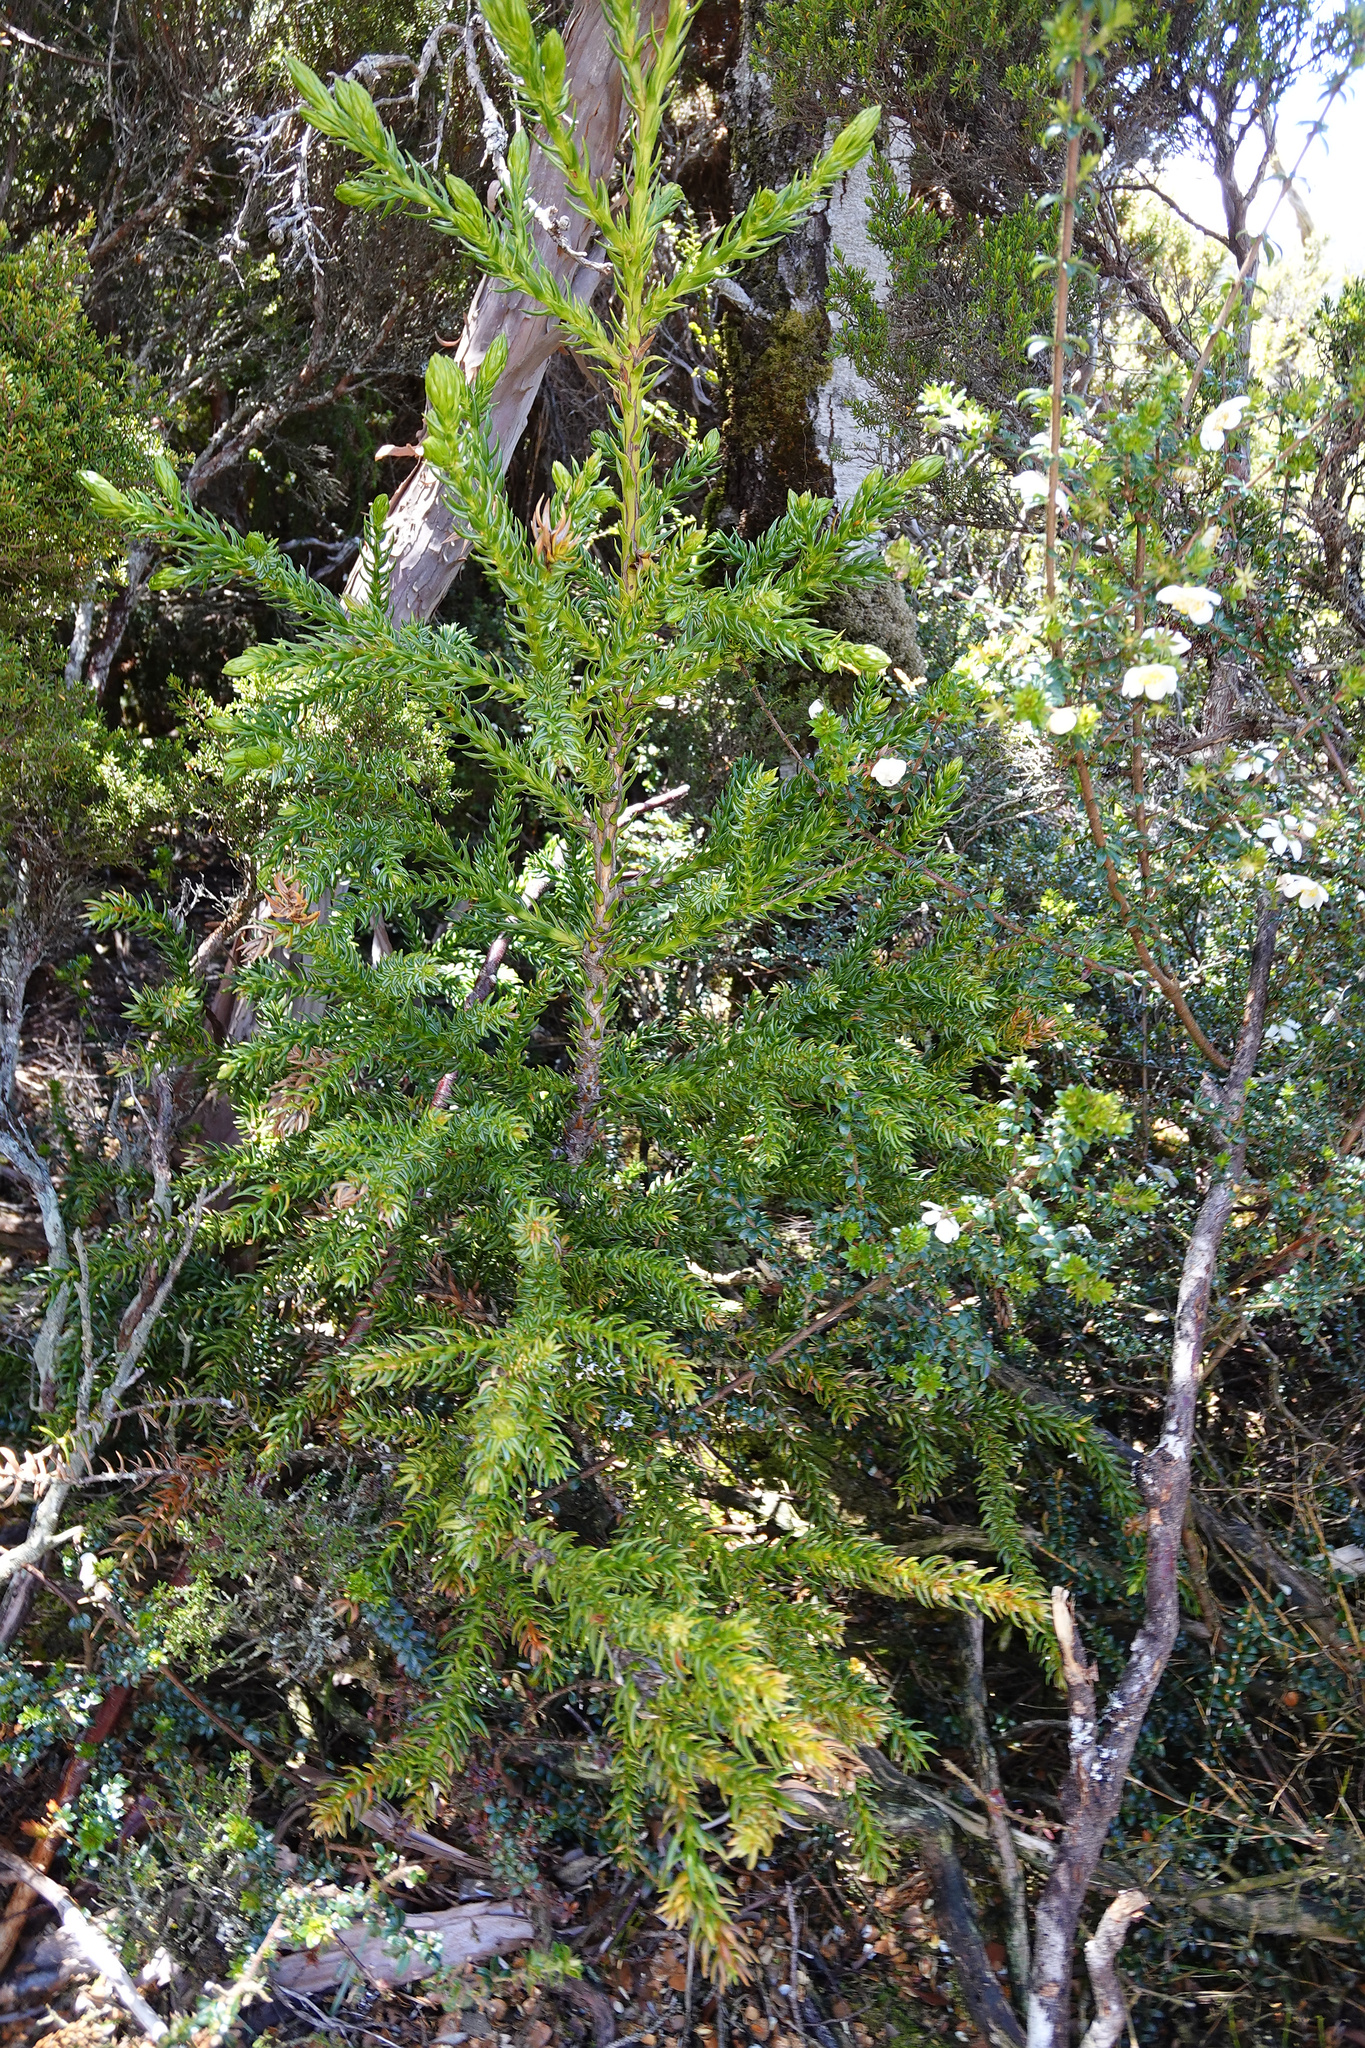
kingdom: Plantae
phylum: Tracheophyta
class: Pinopsida
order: Pinales
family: Cupressaceae
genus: Athrotaxis
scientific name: Athrotaxis selaginoides
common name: King william pine
